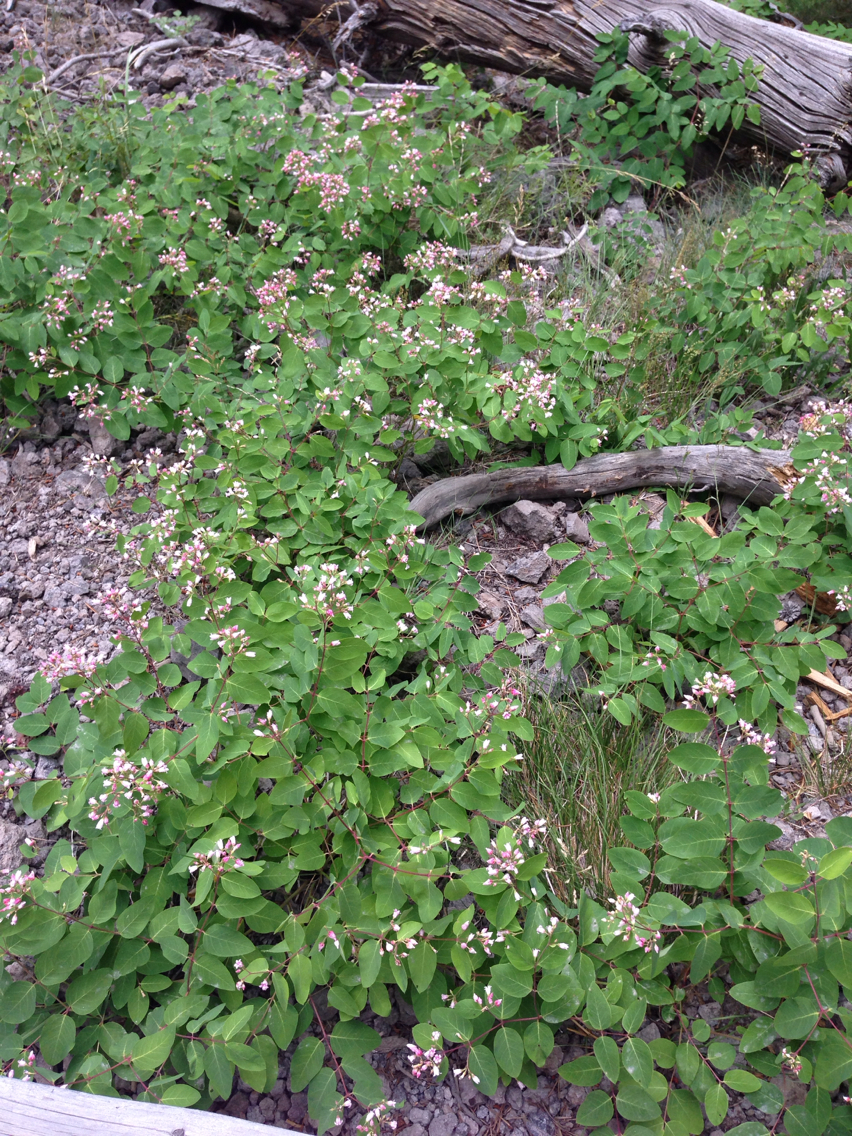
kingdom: Plantae
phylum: Tracheophyta
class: Magnoliopsida
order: Gentianales
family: Apocynaceae
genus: Apocynum
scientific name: Apocynum androsaemifolium
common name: Spreading dogbane
